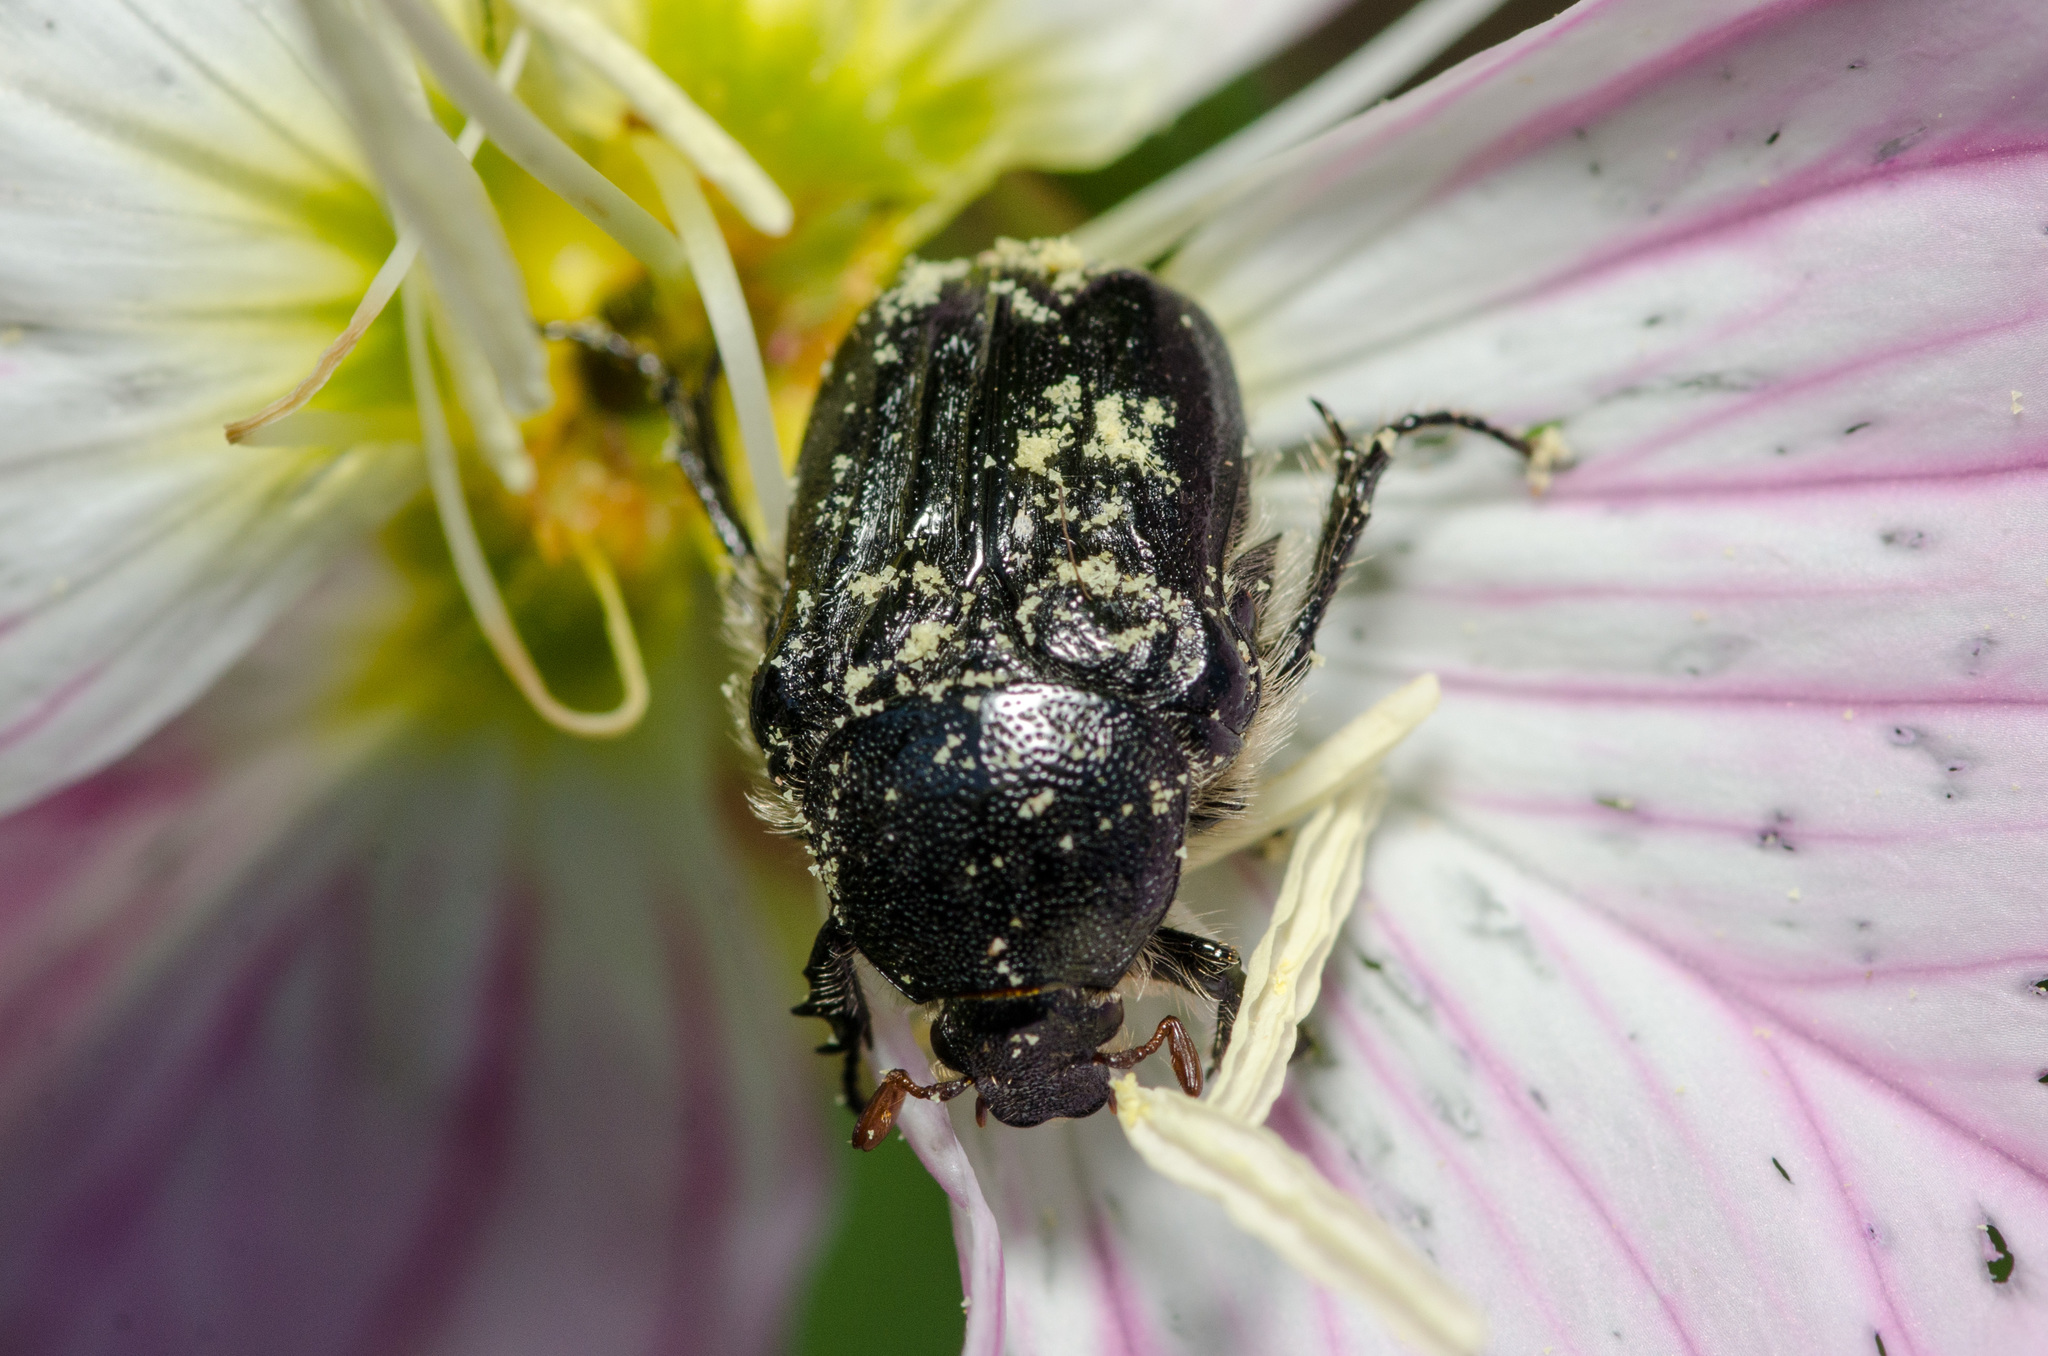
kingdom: Animalia
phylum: Arthropoda
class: Insecta
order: Coleoptera
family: Scarabaeidae
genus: Euphoria
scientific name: Euphoria kernii
